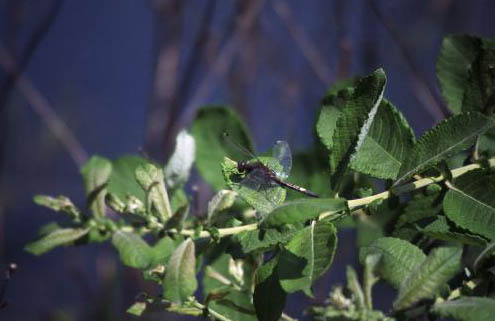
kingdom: Animalia
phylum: Arthropoda
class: Insecta
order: Odonata
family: Libellulidae
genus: Leucorrhinia
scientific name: Leucorrhinia pectoralis
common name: Yellow-spotted whiteface
